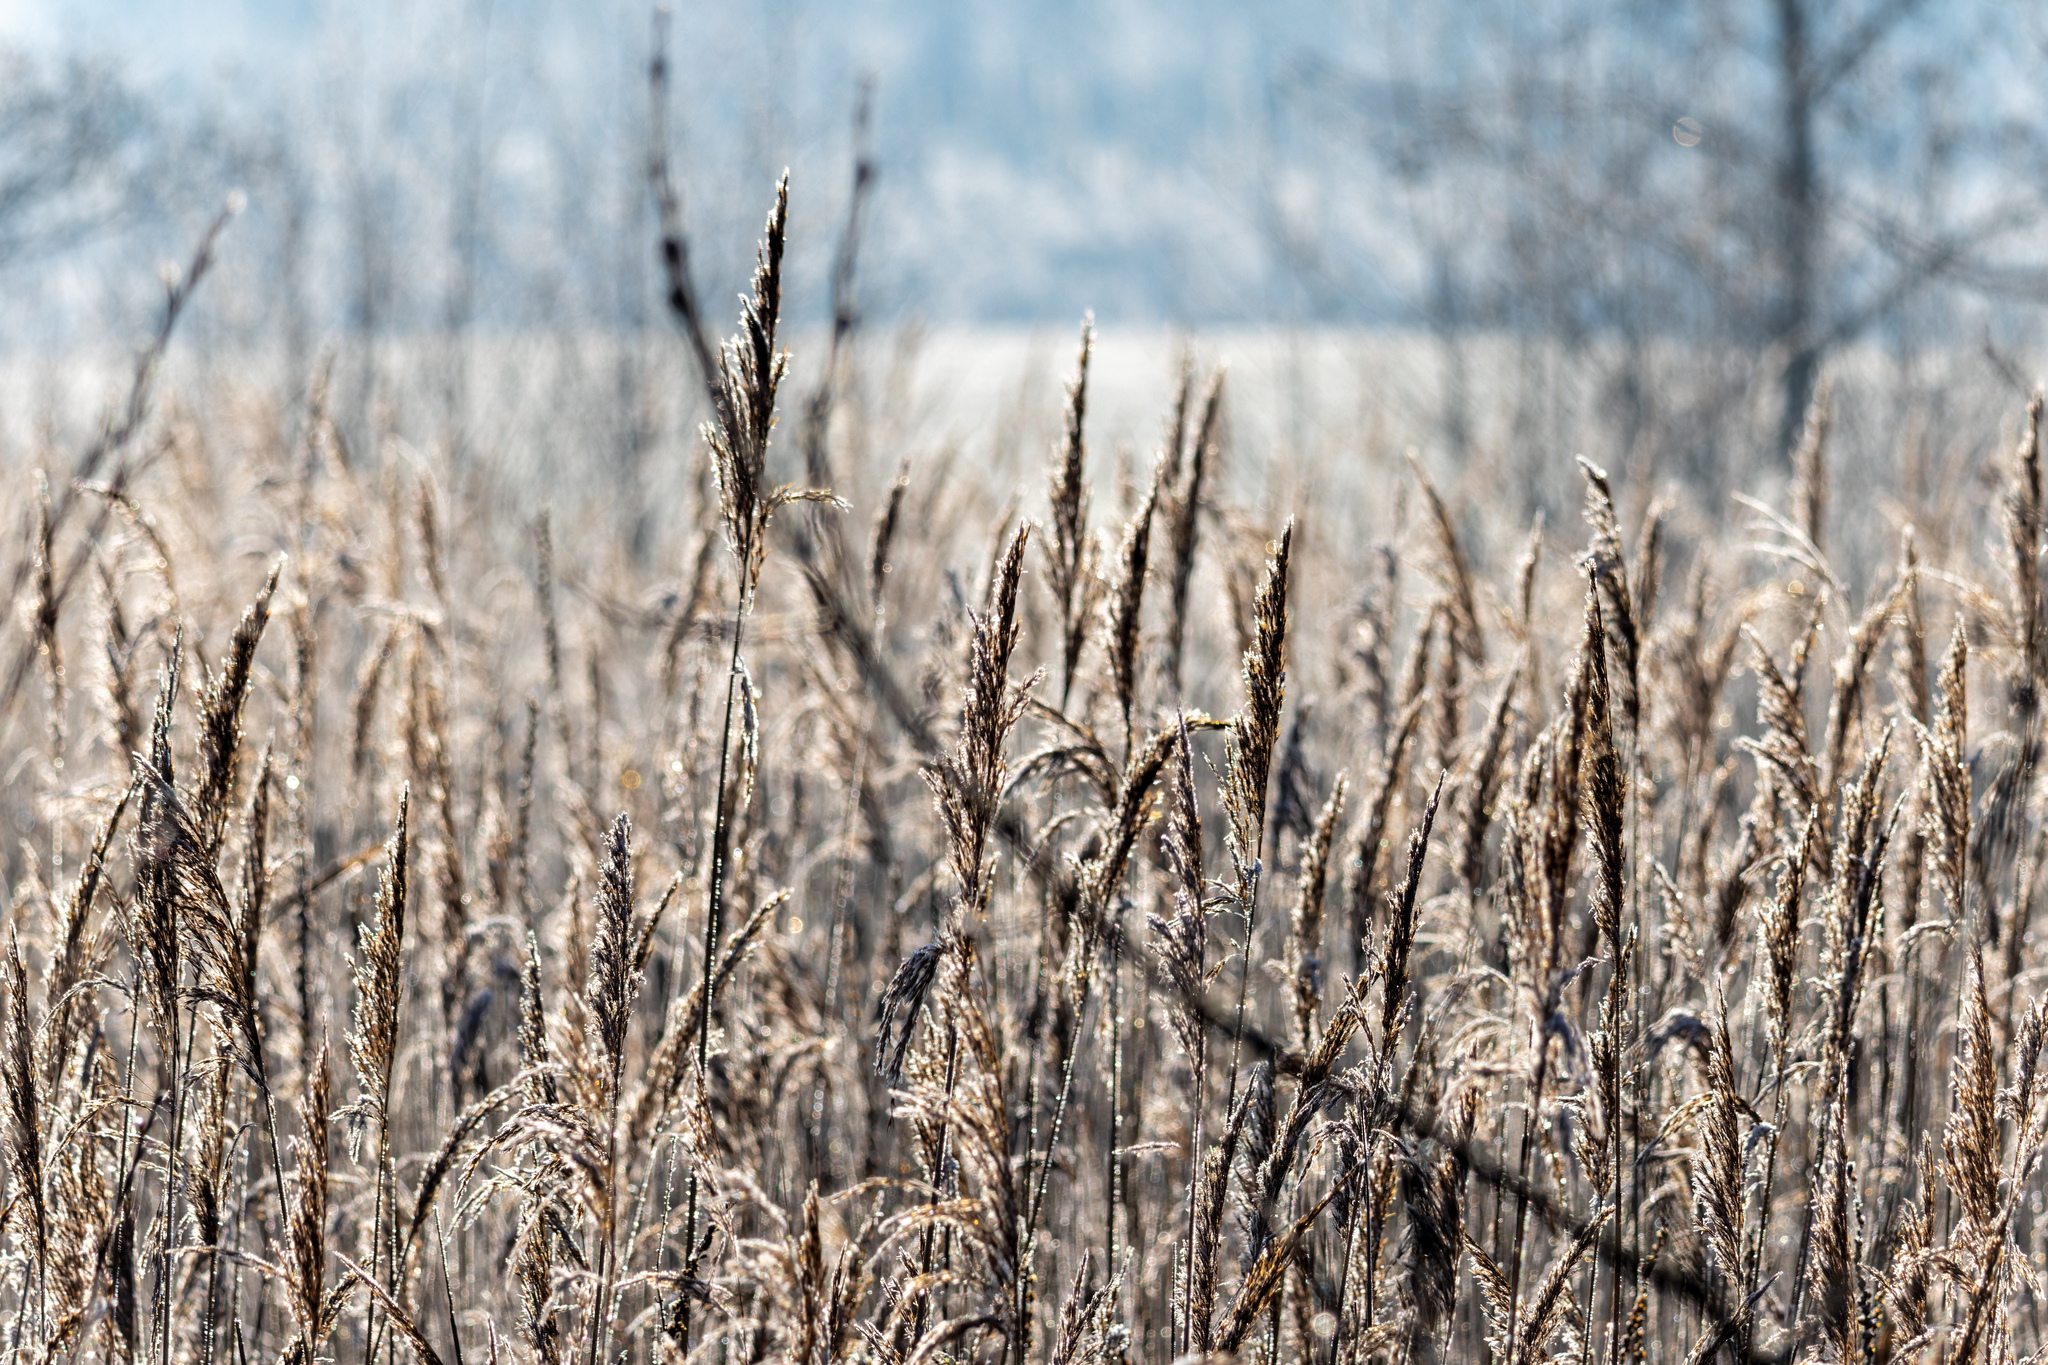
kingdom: Plantae
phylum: Tracheophyta
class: Liliopsida
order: Poales
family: Poaceae
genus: Phragmites
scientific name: Phragmites australis
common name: Common reed
